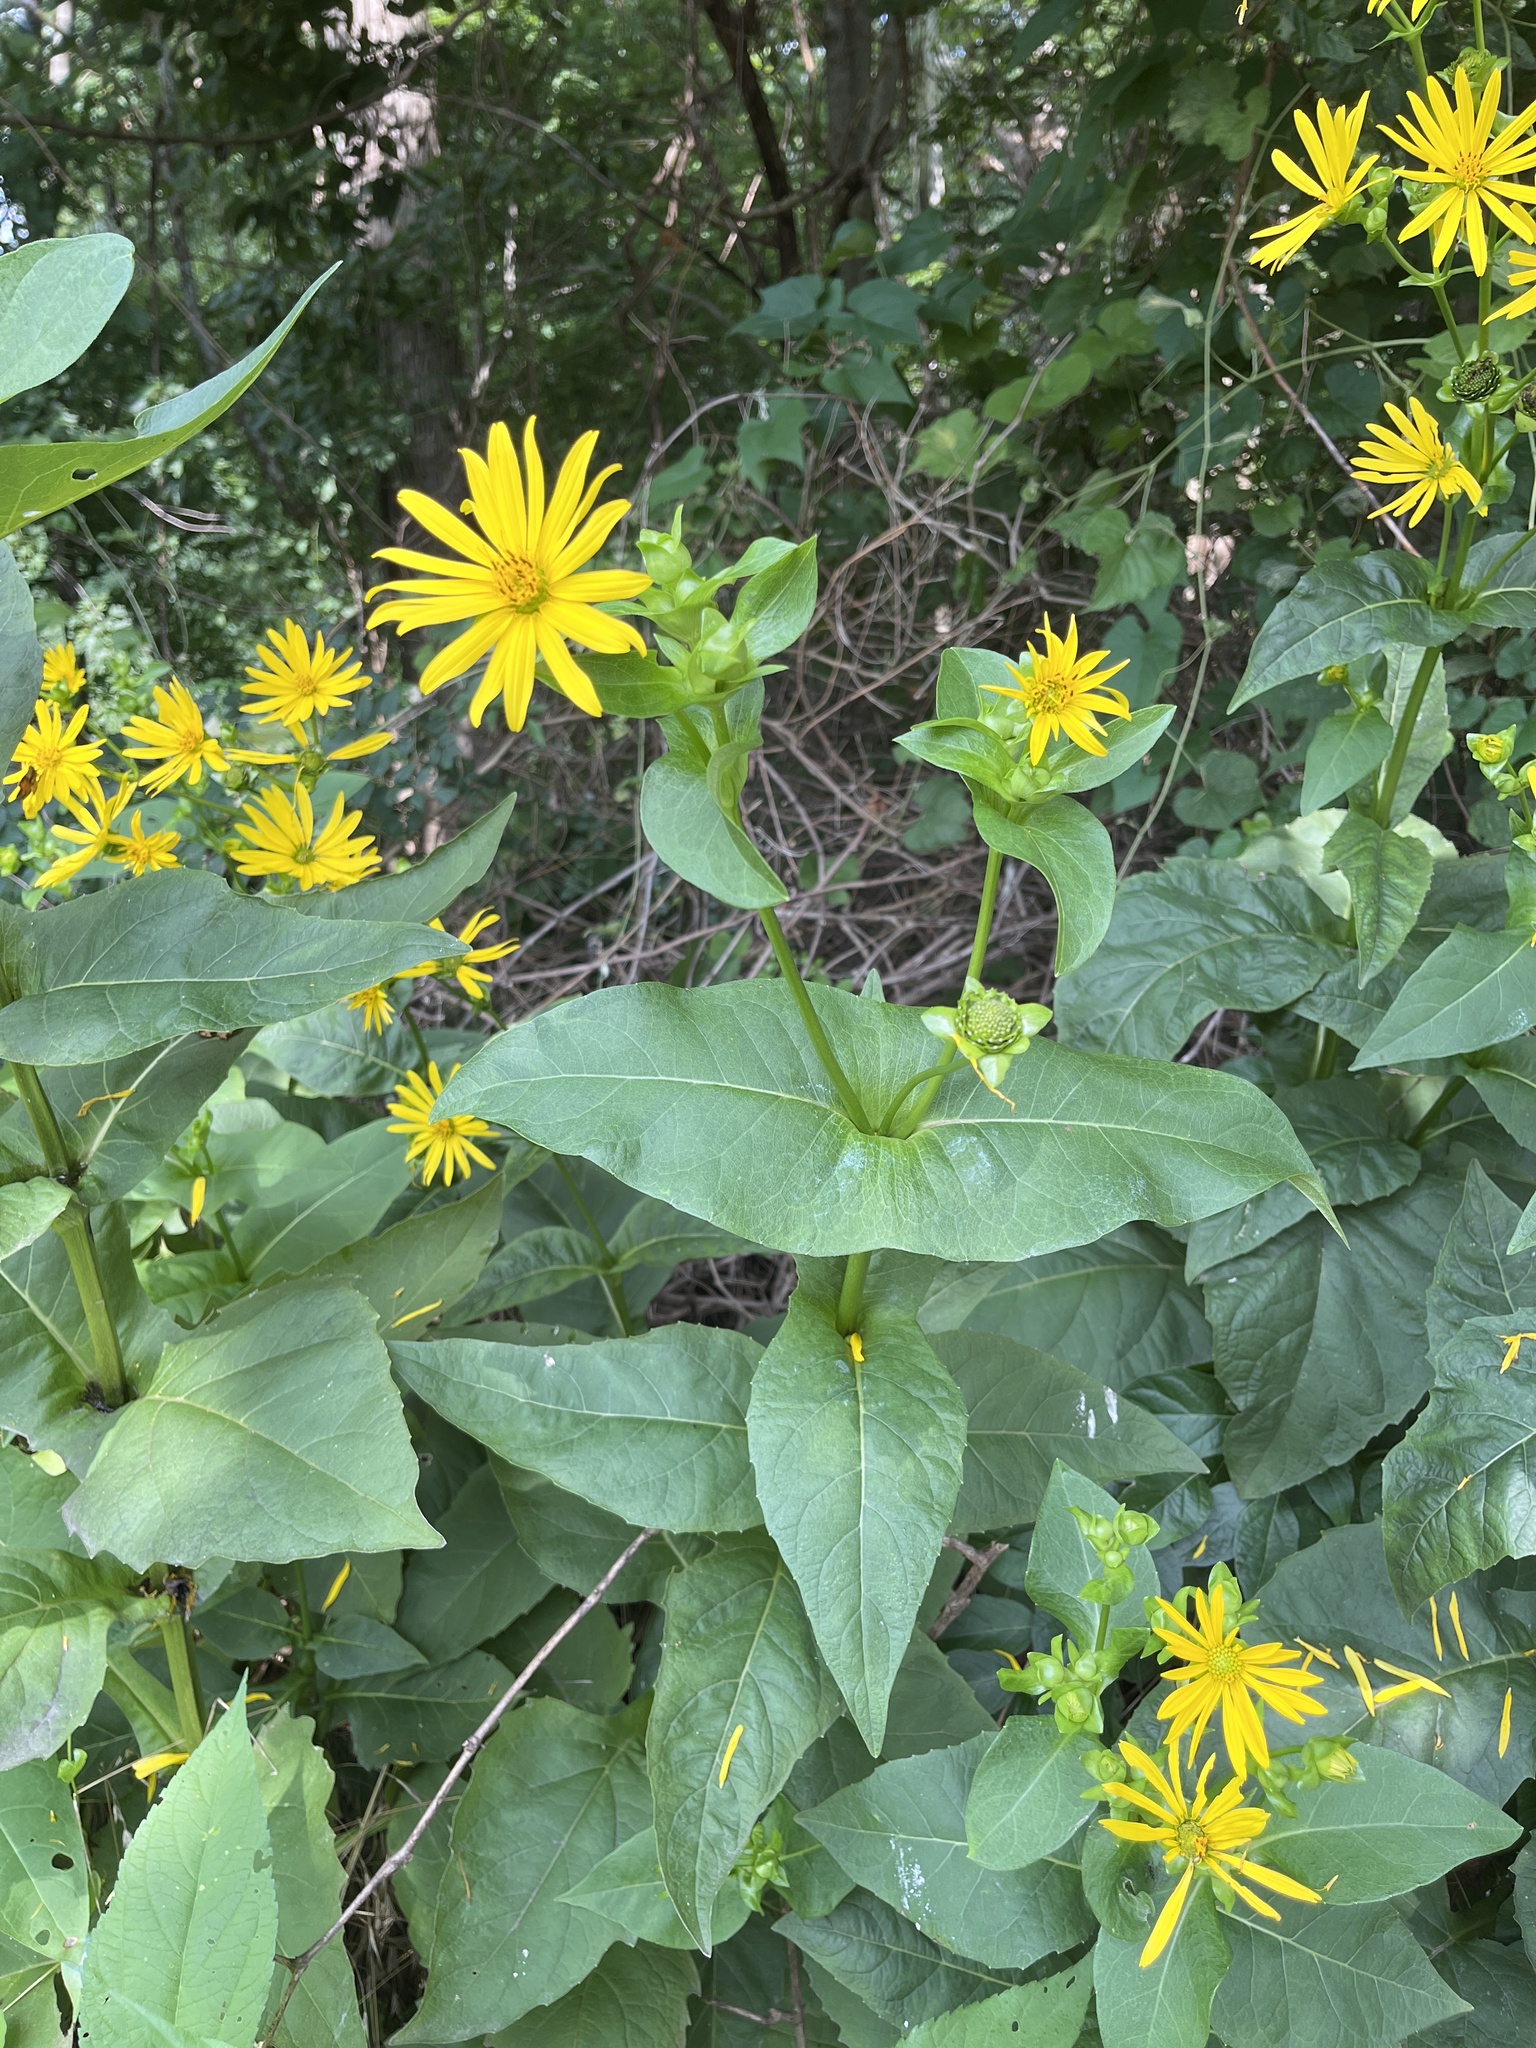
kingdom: Plantae
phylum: Tracheophyta
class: Magnoliopsida
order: Asterales
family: Asteraceae
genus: Silphium
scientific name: Silphium perfoliatum
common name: Cup-plant
